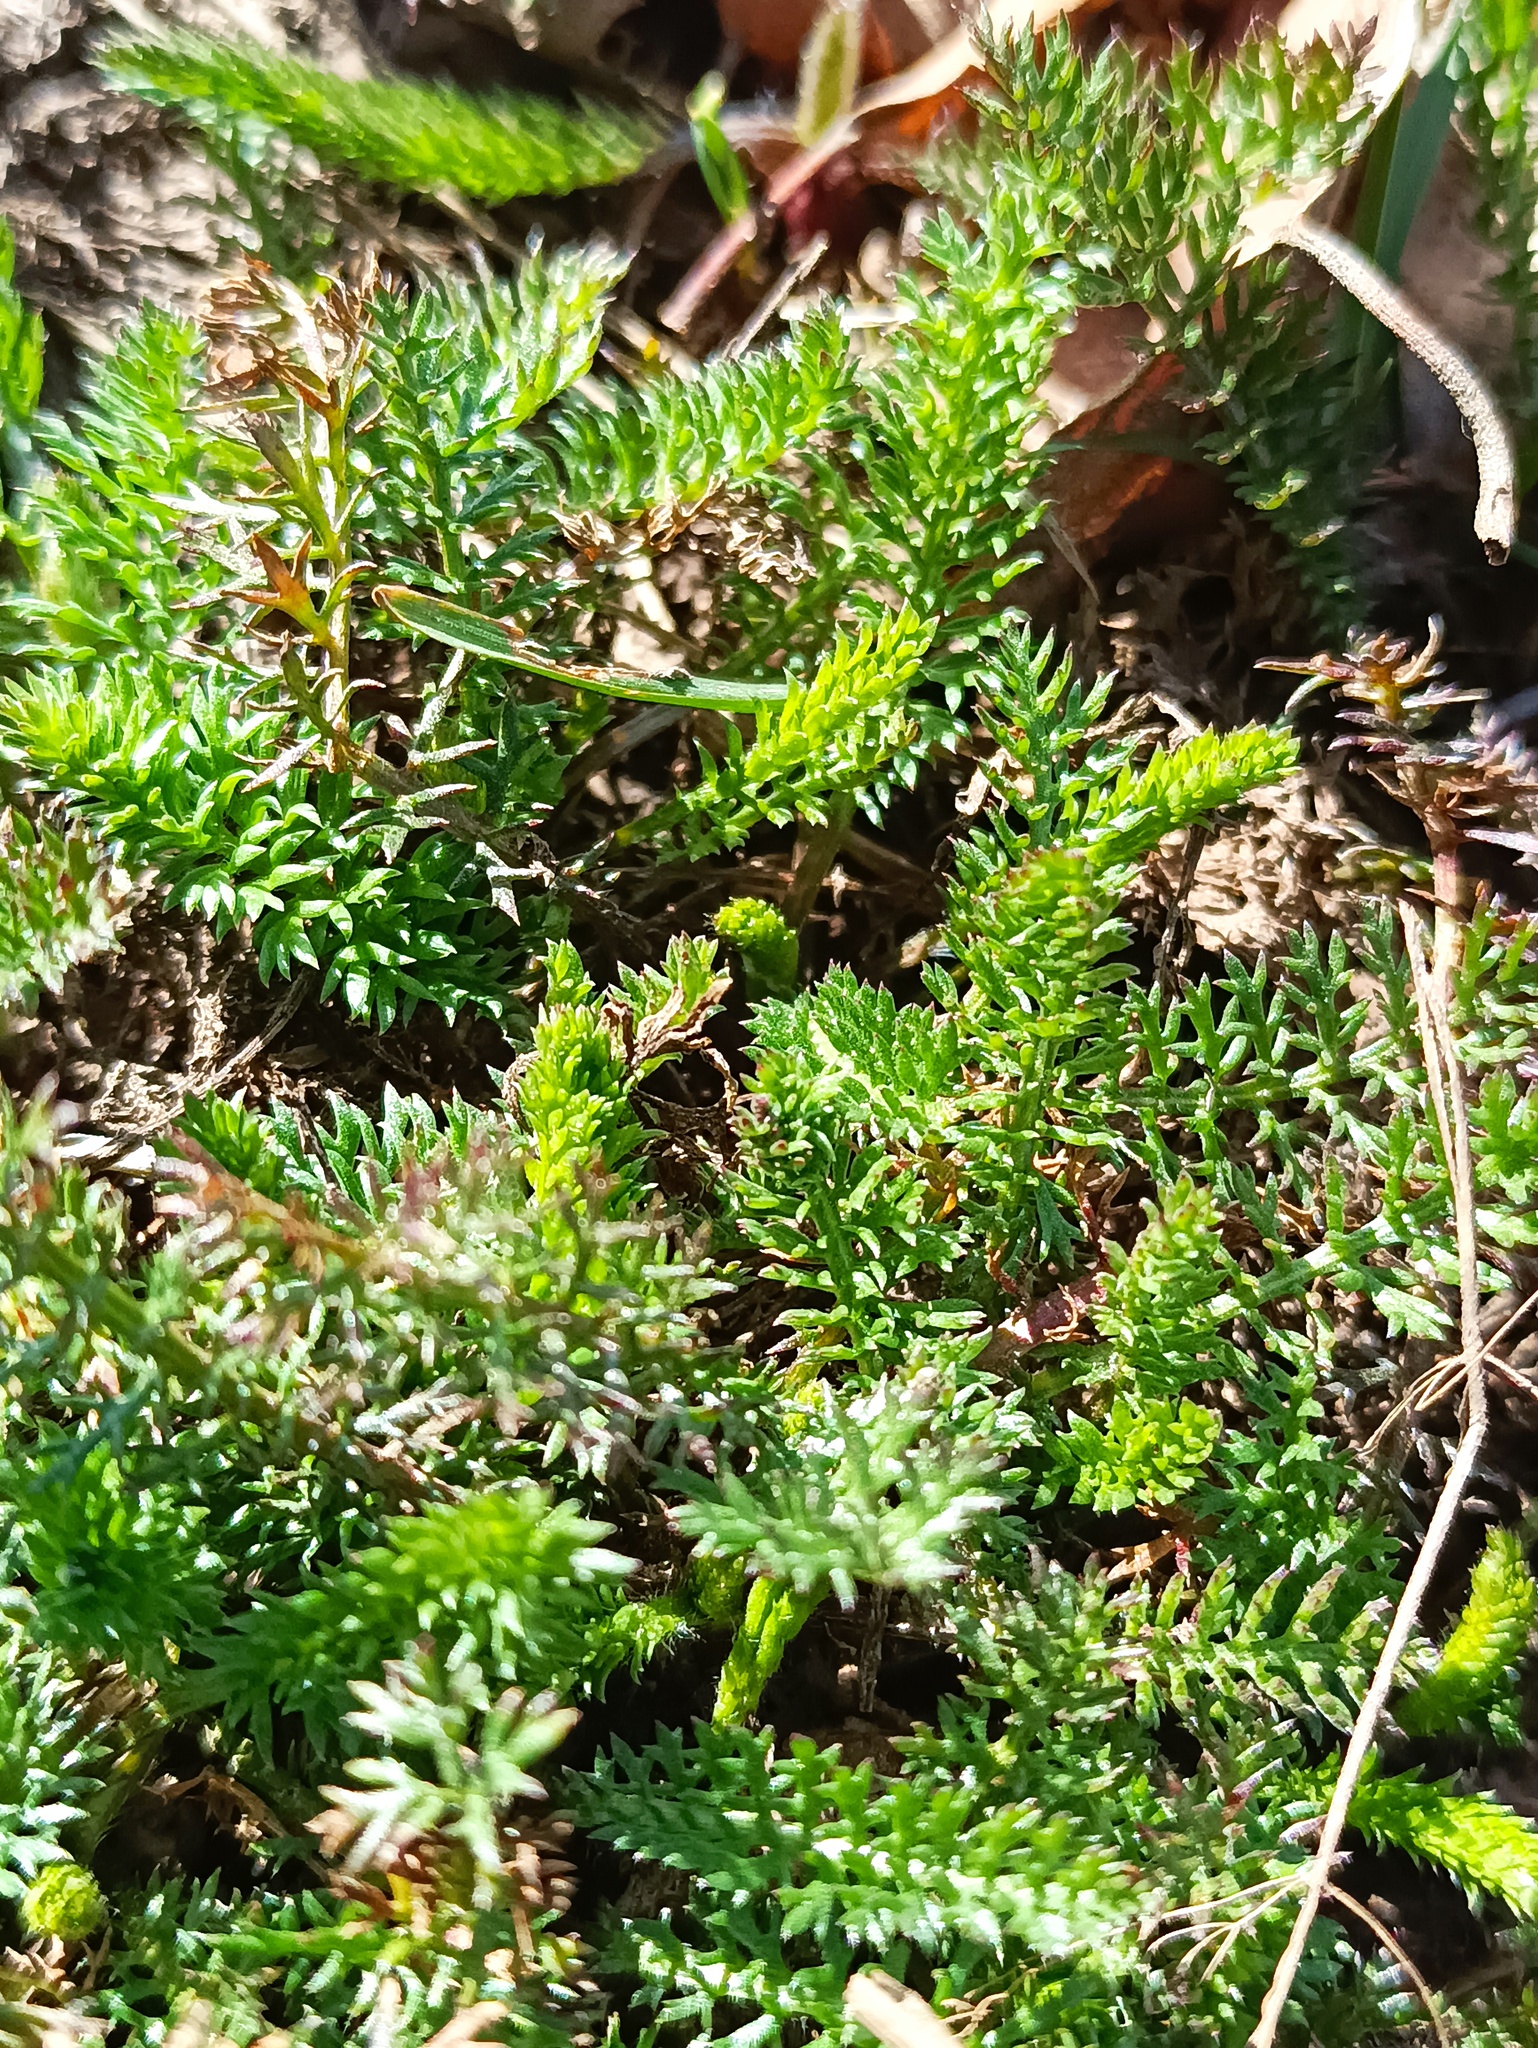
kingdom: Plantae
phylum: Tracheophyta
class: Magnoliopsida
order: Asterales
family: Asteraceae
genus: Achillea
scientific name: Achillea millefolium
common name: Yarrow
